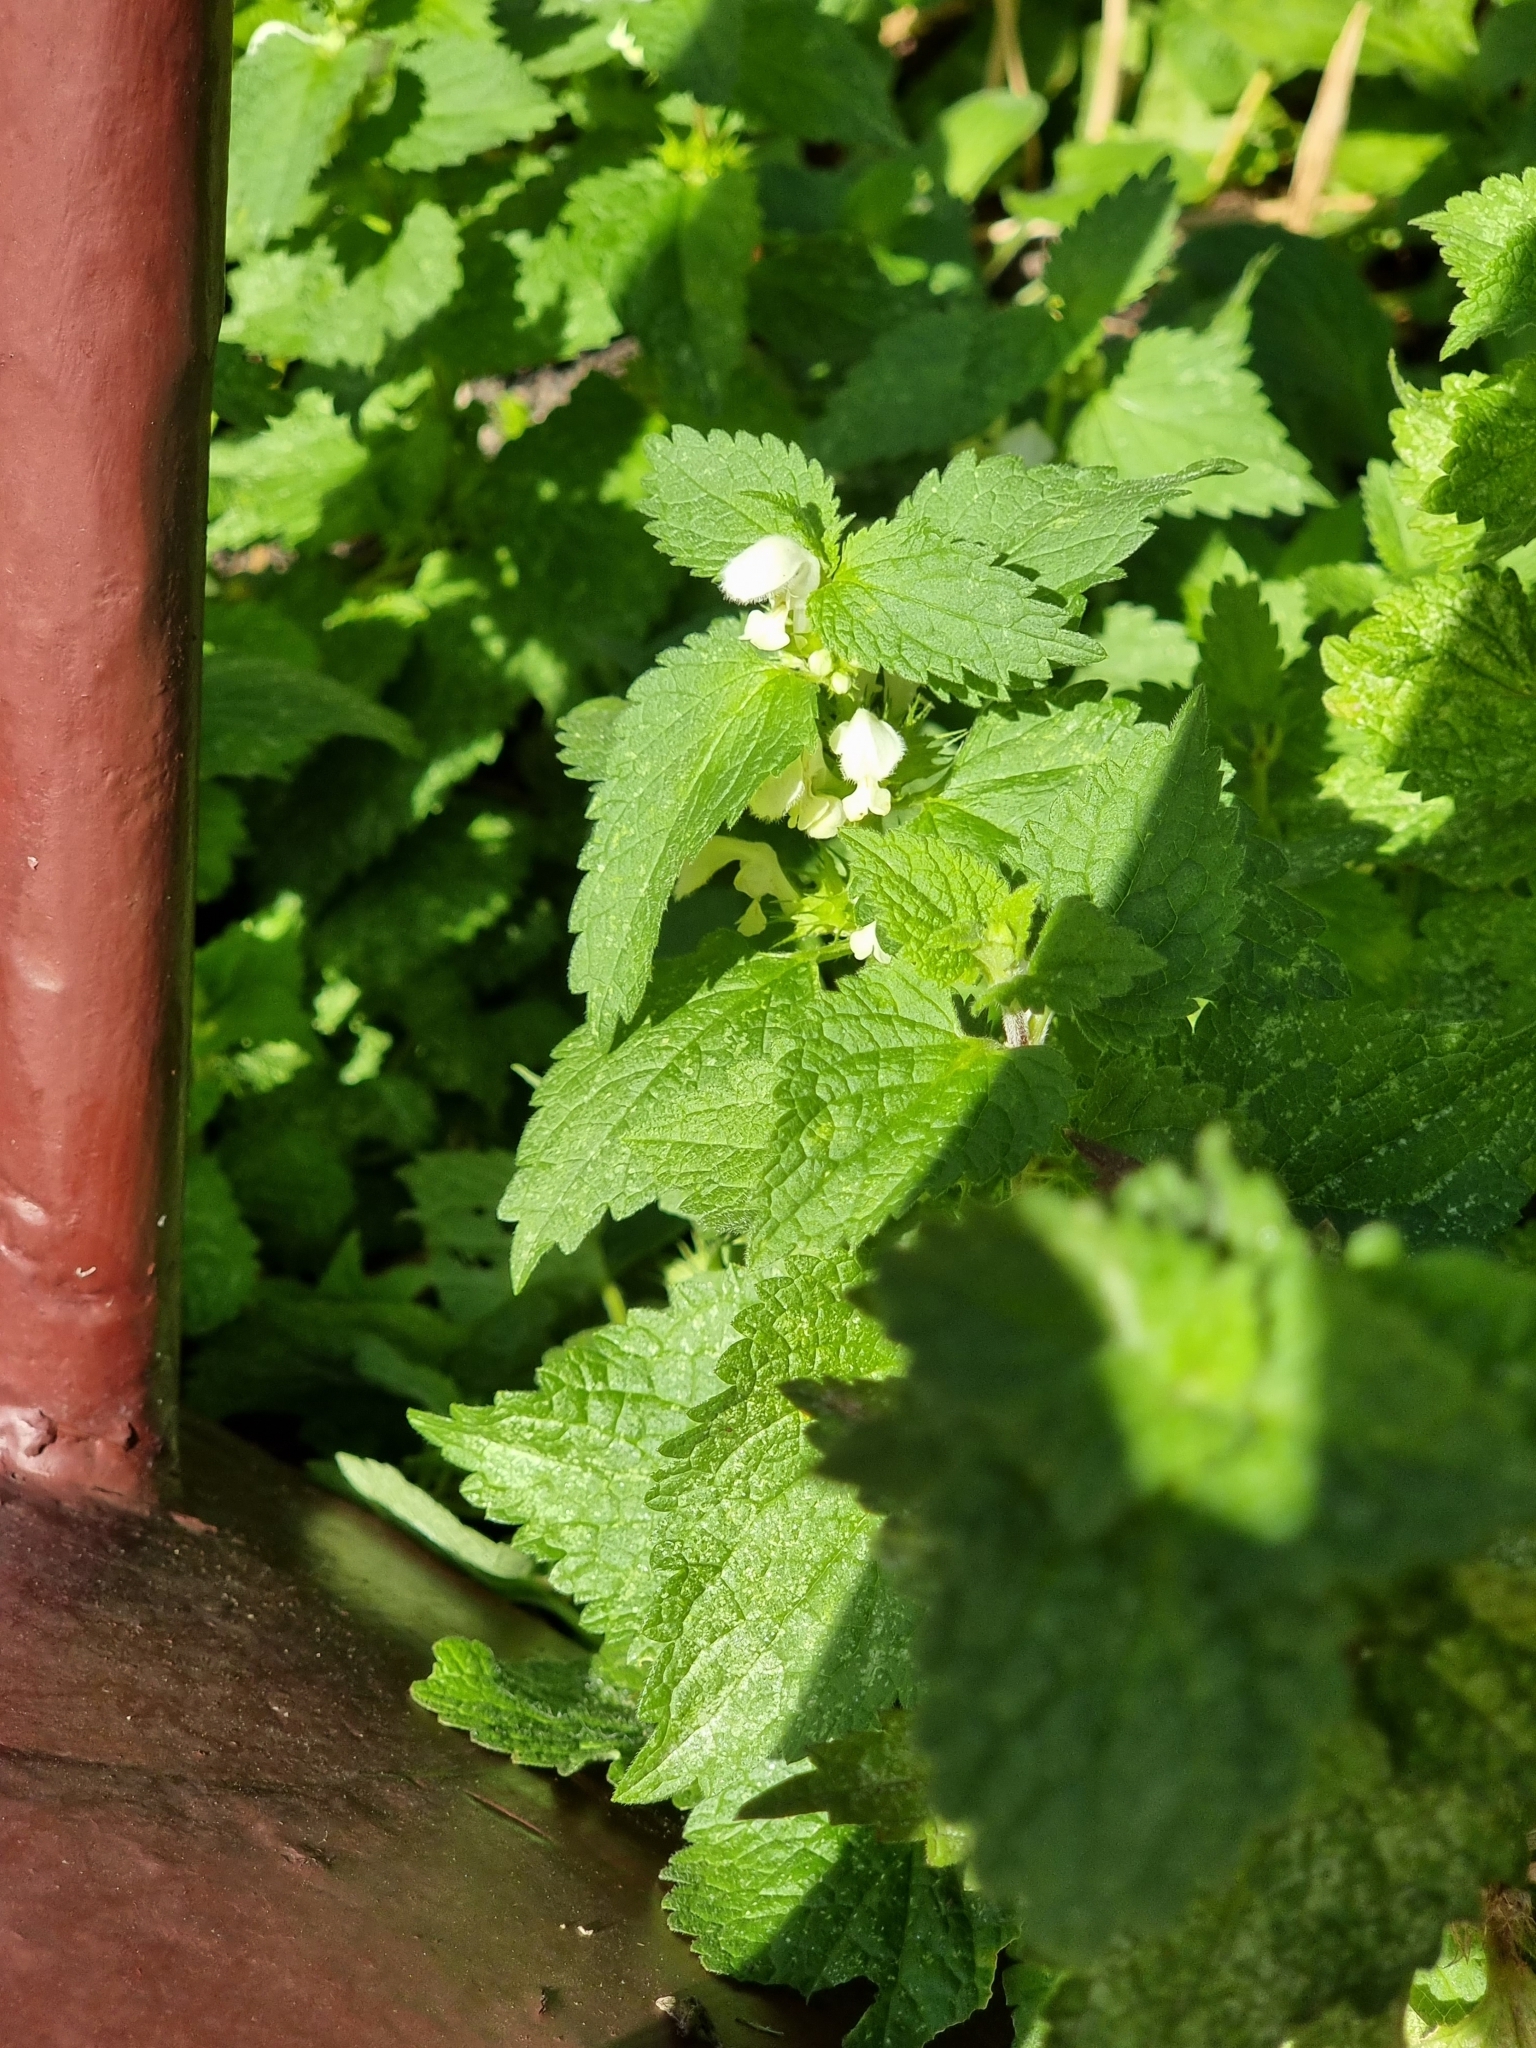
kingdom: Plantae
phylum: Tracheophyta
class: Magnoliopsida
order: Lamiales
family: Lamiaceae
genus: Lamium
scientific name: Lamium album
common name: White dead-nettle
